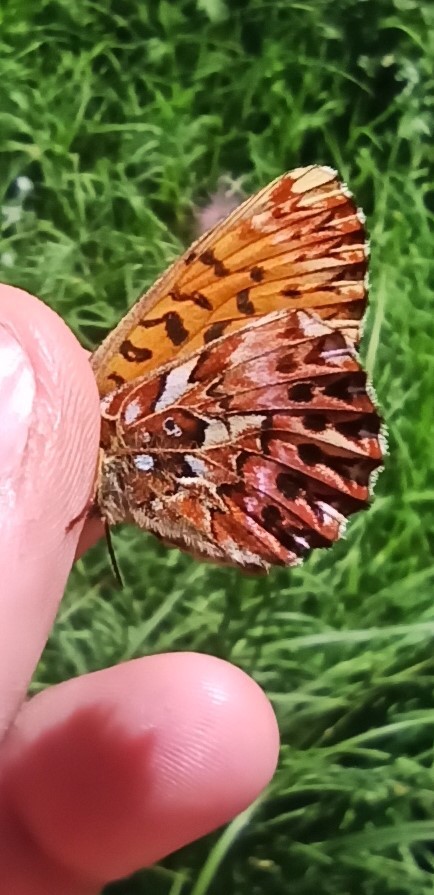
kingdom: Animalia
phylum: Arthropoda
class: Insecta
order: Lepidoptera
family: Nymphalidae
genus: Boloria
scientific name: Boloria titania
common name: Titania's fritillary
